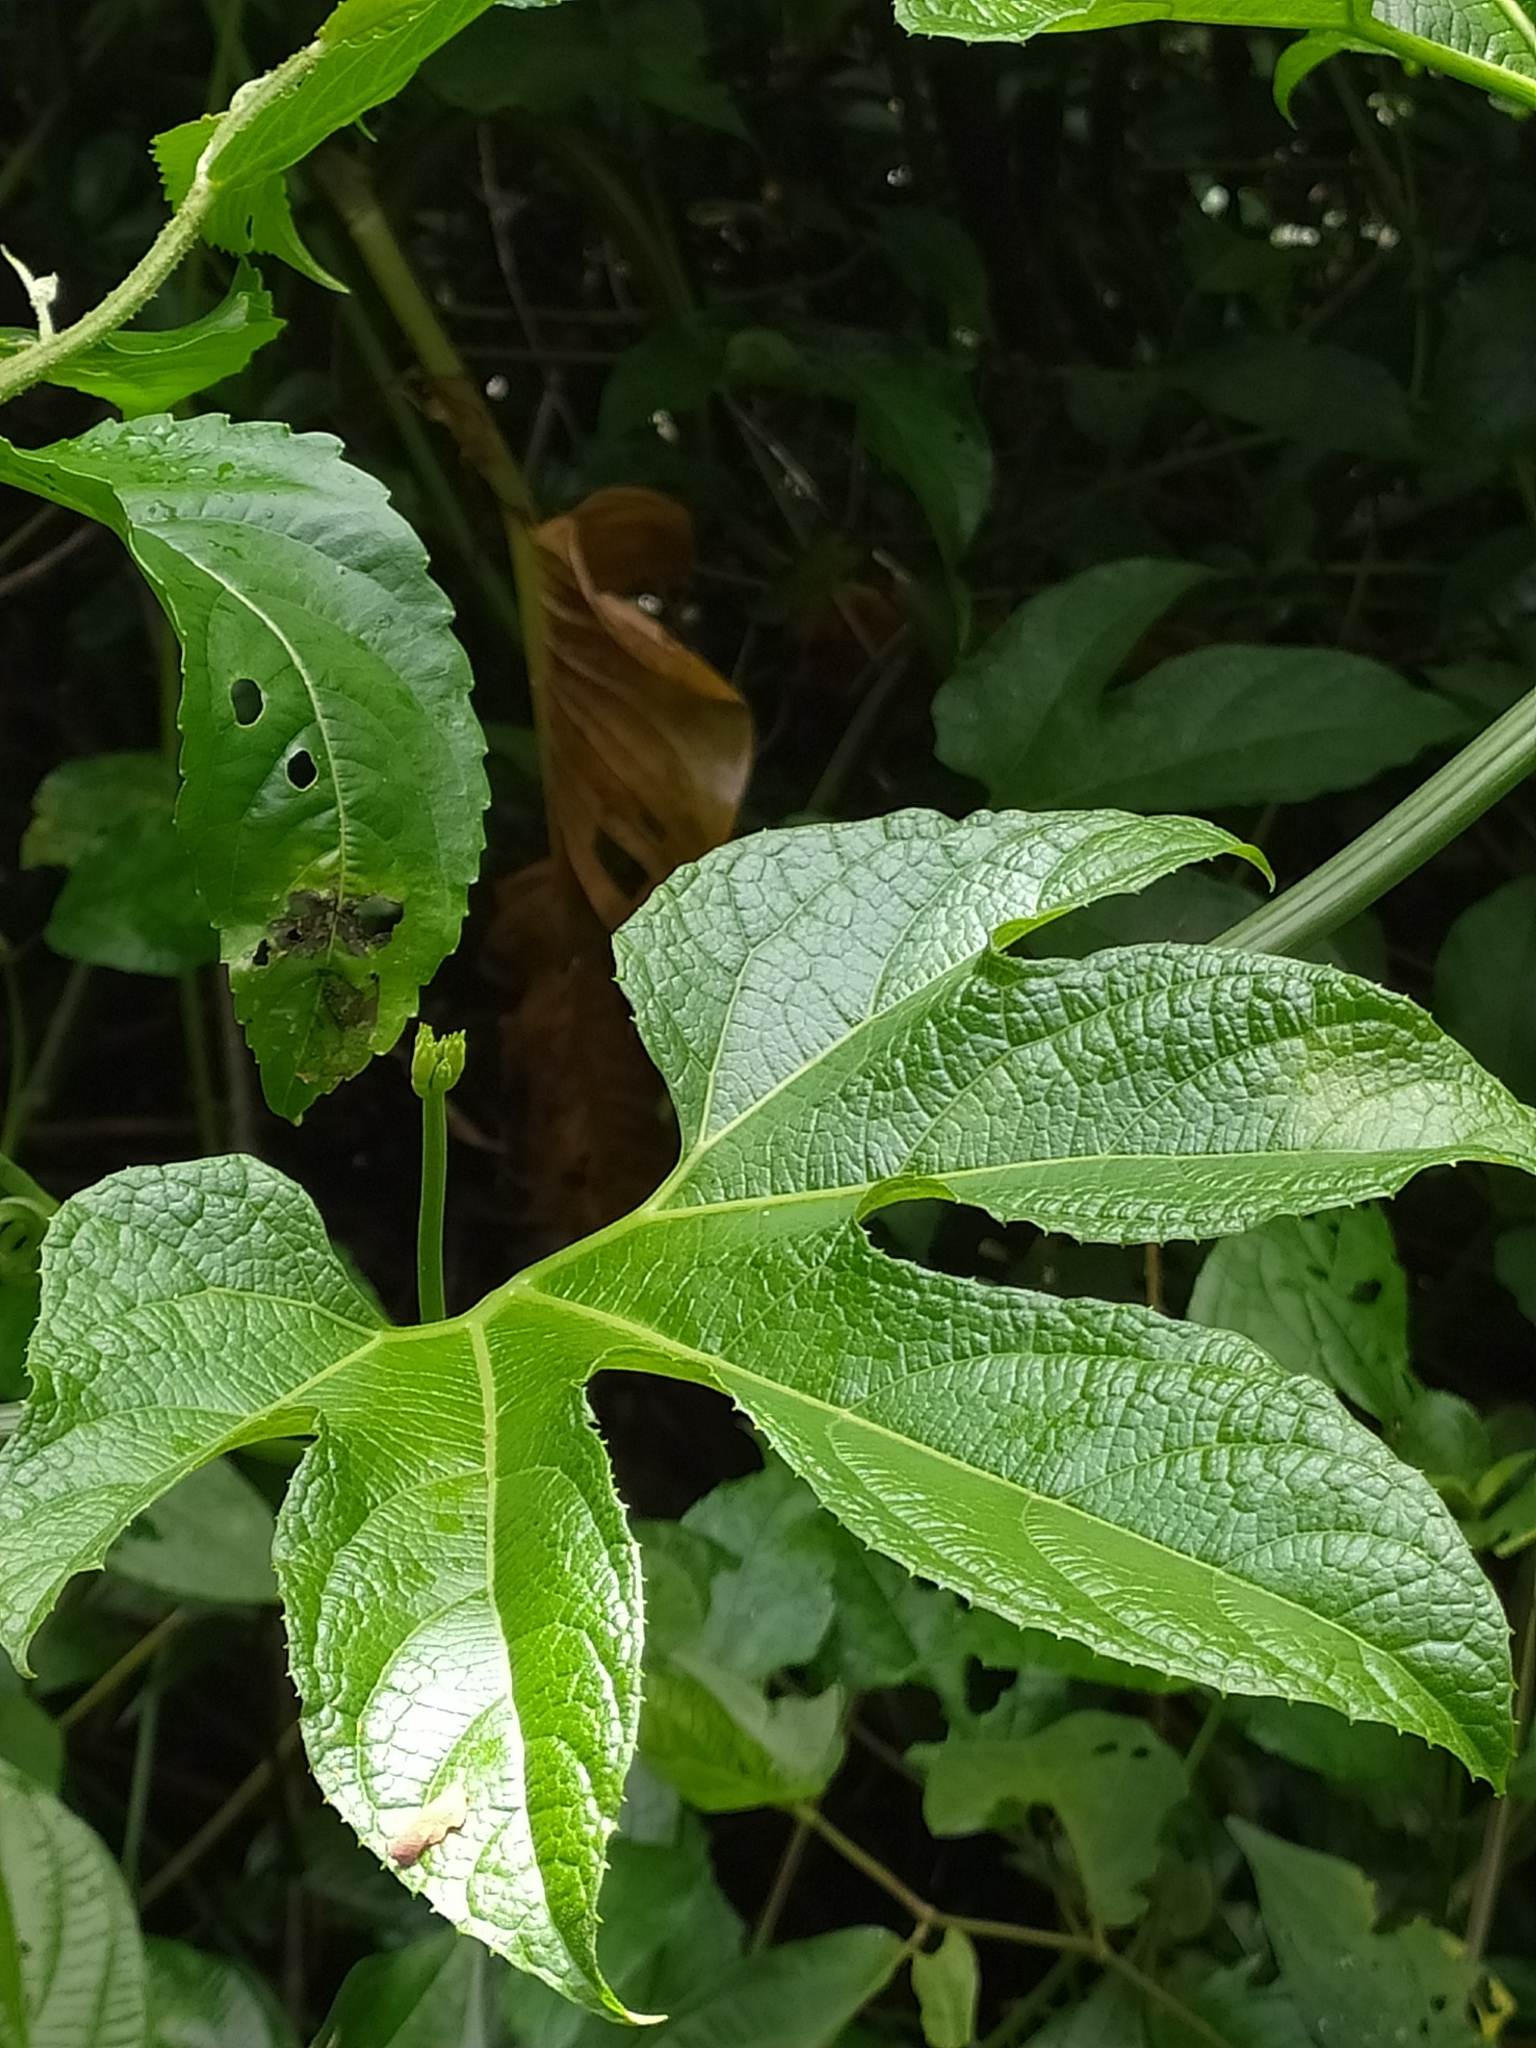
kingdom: Plantae
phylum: Tracheophyta
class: Magnoliopsida
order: Cucurbitales
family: Cucurbitaceae
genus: Gurania
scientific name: Gurania lobata
